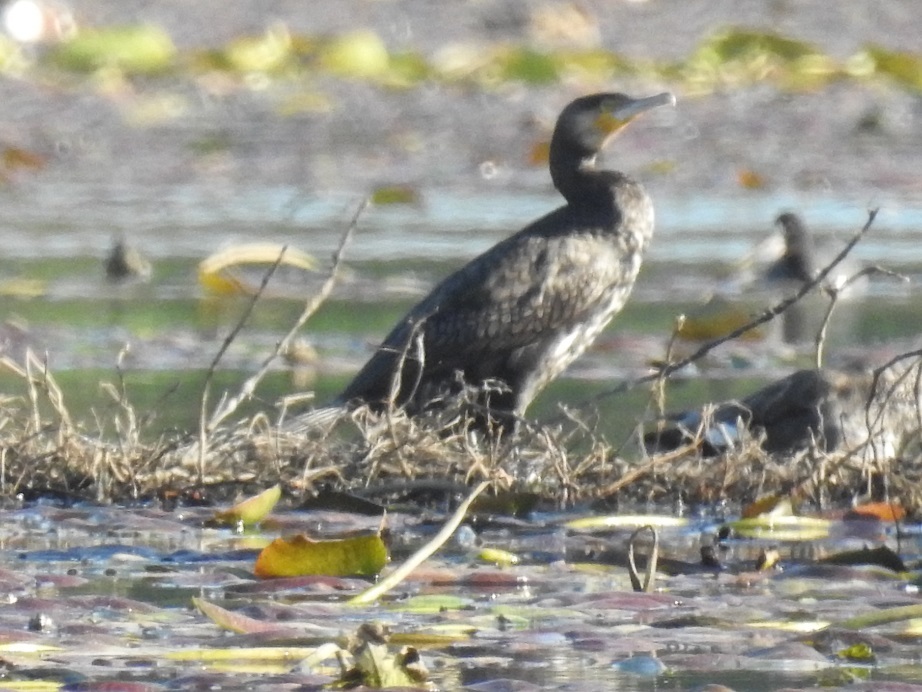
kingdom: Animalia
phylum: Chordata
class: Aves
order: Suliformes
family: Phalacrocoracidae
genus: Phalacrocorax
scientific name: Phalacrocorax carbo
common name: Great cormorant
